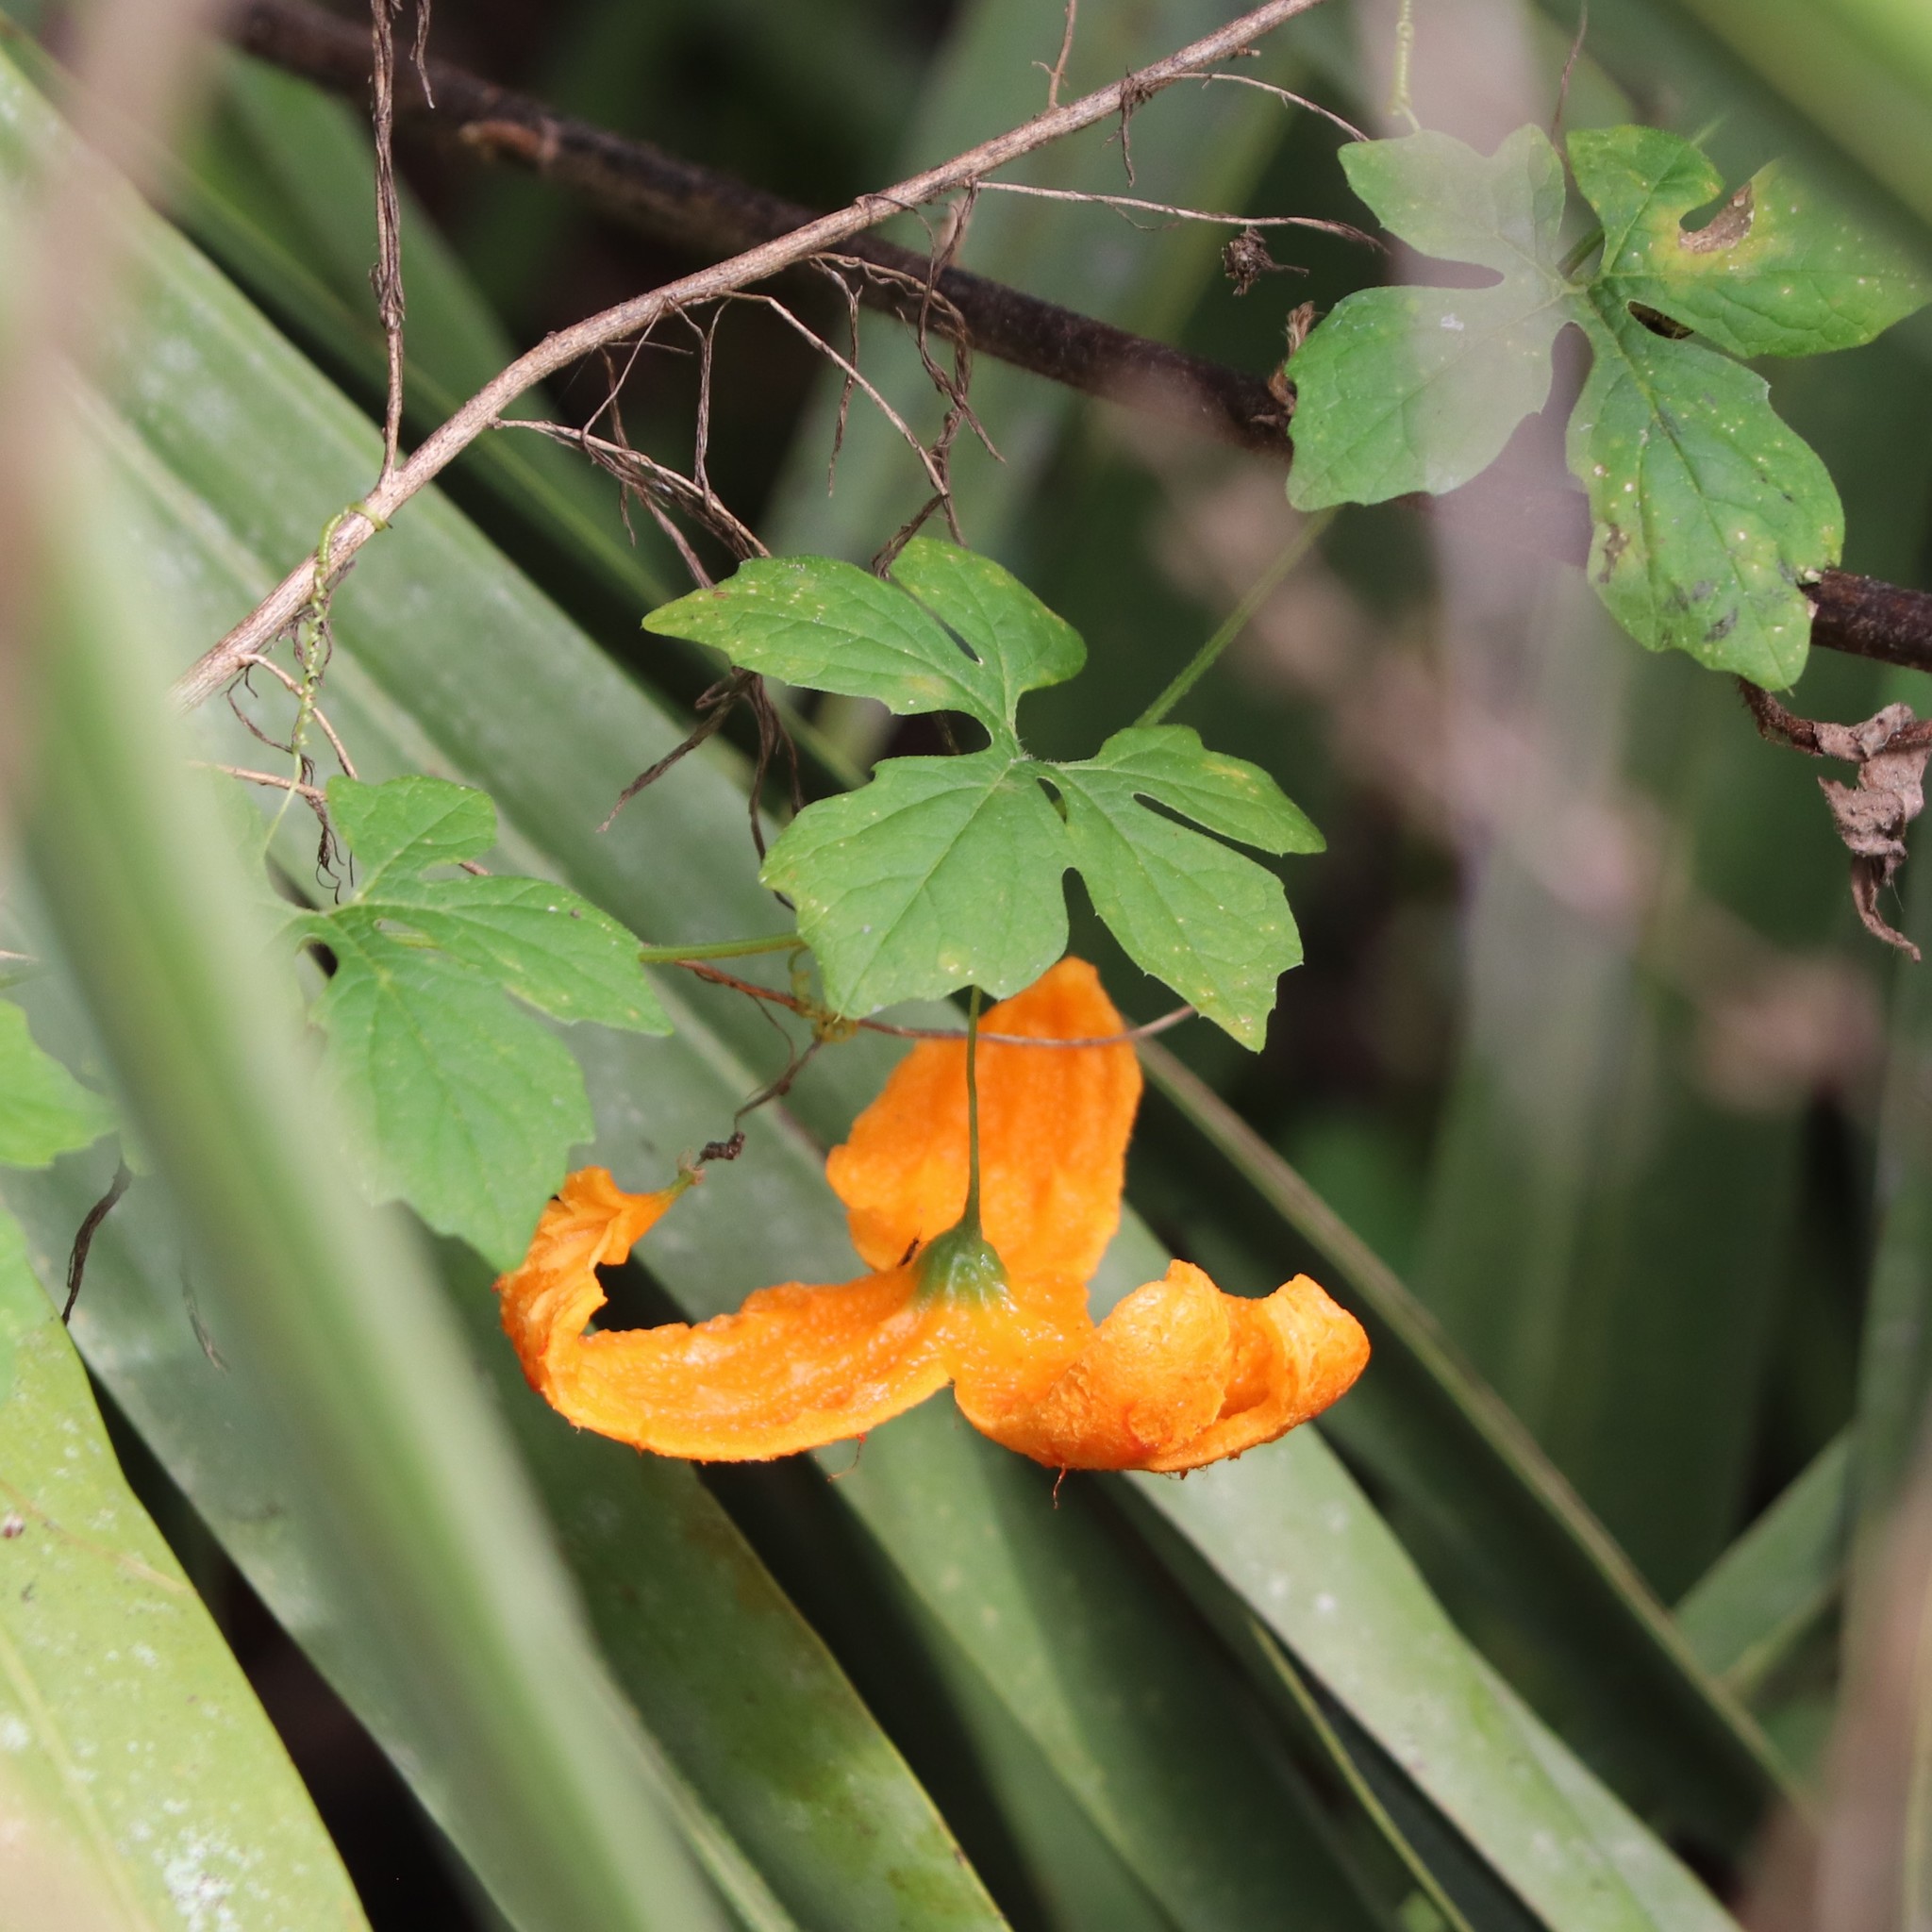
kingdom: Plantae
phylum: Tracheophyta
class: Magnoliopsida
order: Cucurbitales
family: Cucurbitaceae
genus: Momordica
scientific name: Momordica charantia
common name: Balsampear
